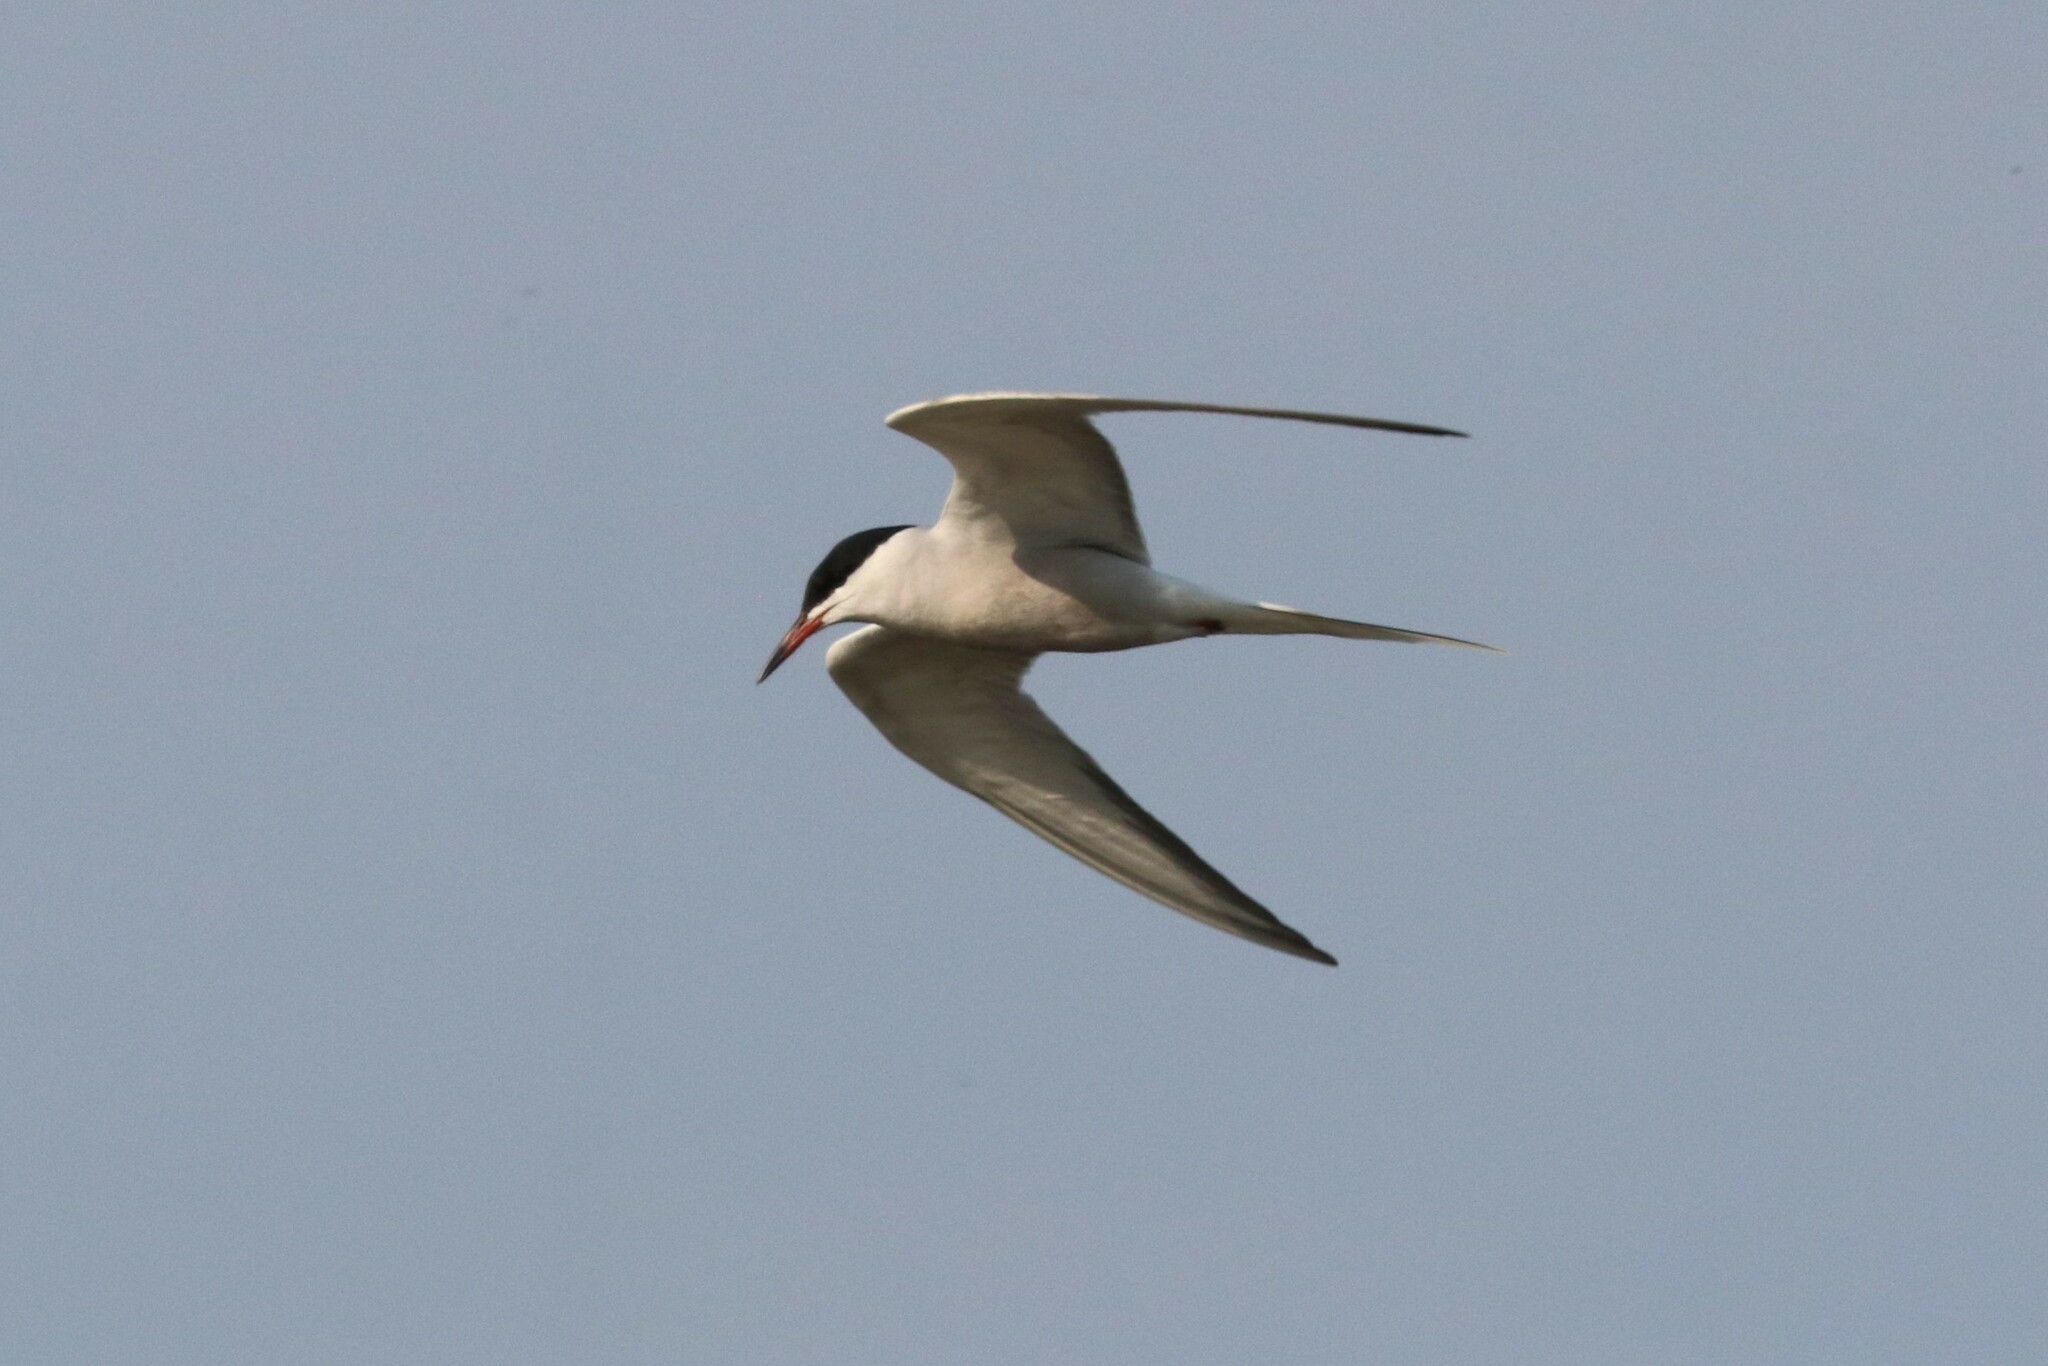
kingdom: Animalia
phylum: Chordata
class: Aves
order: Charadriiformes
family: Laridae
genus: Sterna
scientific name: Sterna hirundo
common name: Common tern
